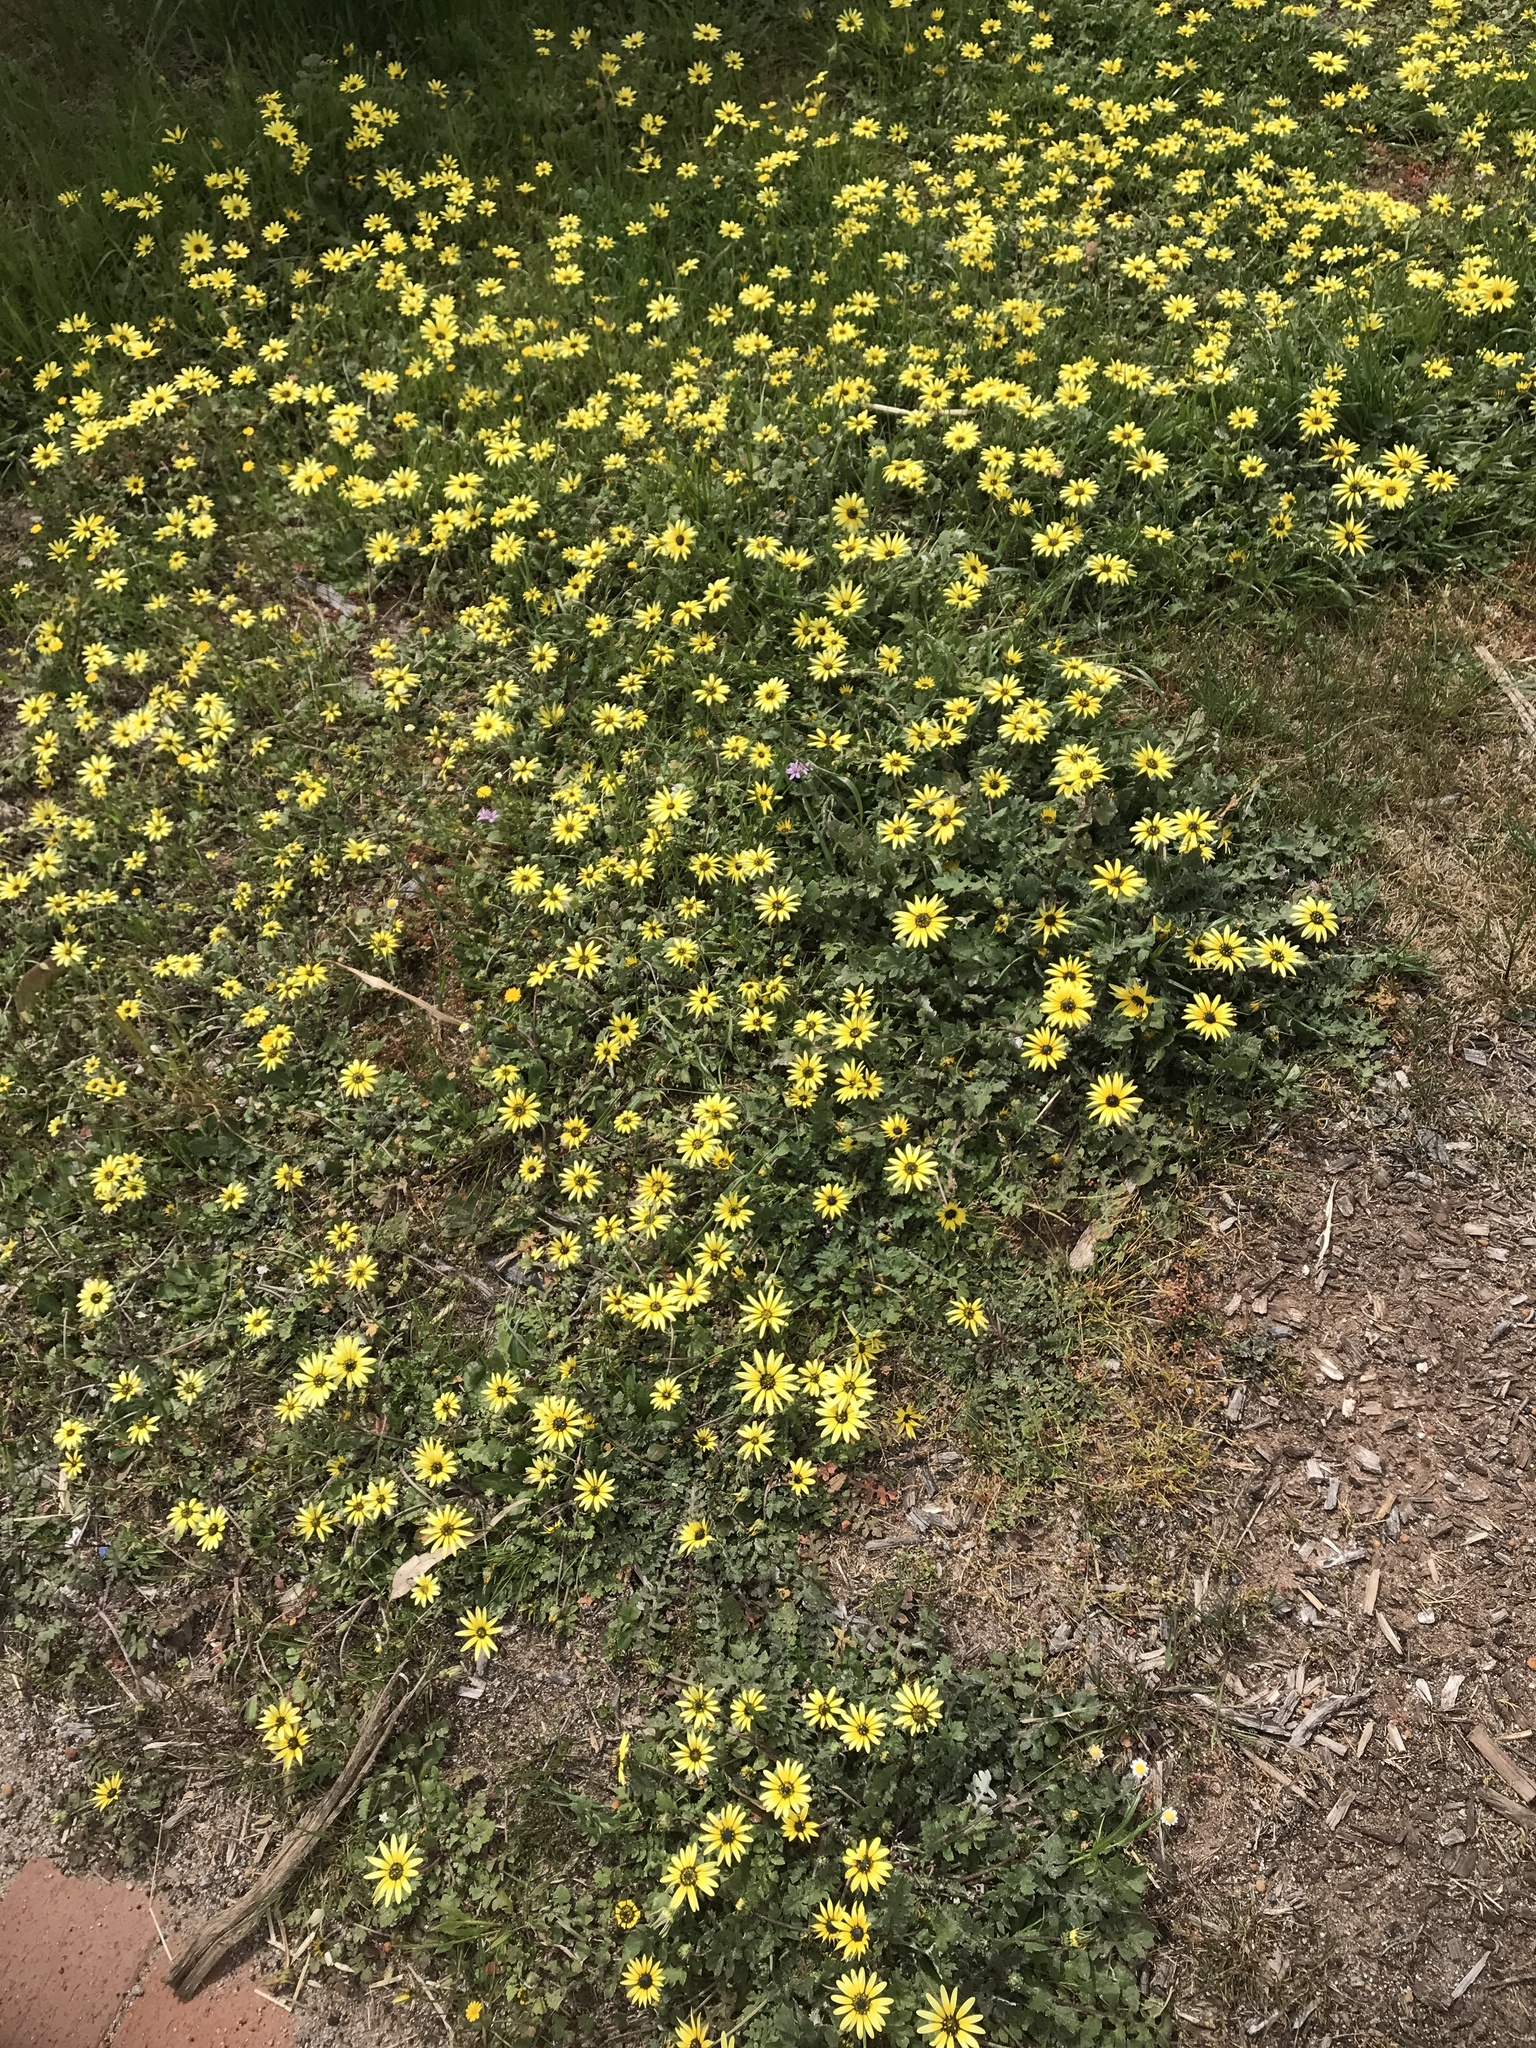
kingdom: Plantae
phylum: Tracheophyta
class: Magnoliopsida
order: Asterales
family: Asteraceae
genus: Arctotheca
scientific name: Arctotheca calendula
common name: Capeweed
